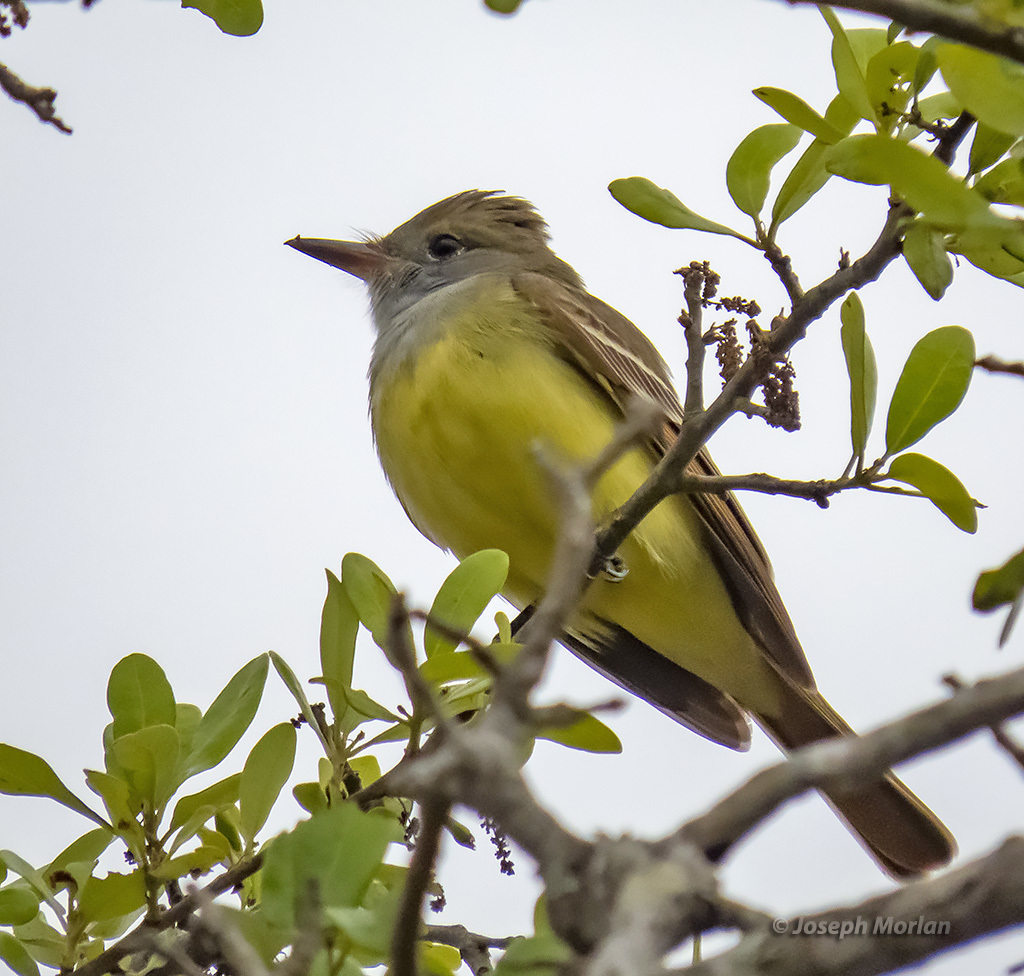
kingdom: Animalia
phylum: Chordata
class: Aves
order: Passeriformes
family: Tyrannidae
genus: Myiarchus
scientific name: Myiarchus crinitus
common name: Great crested flycatcher
